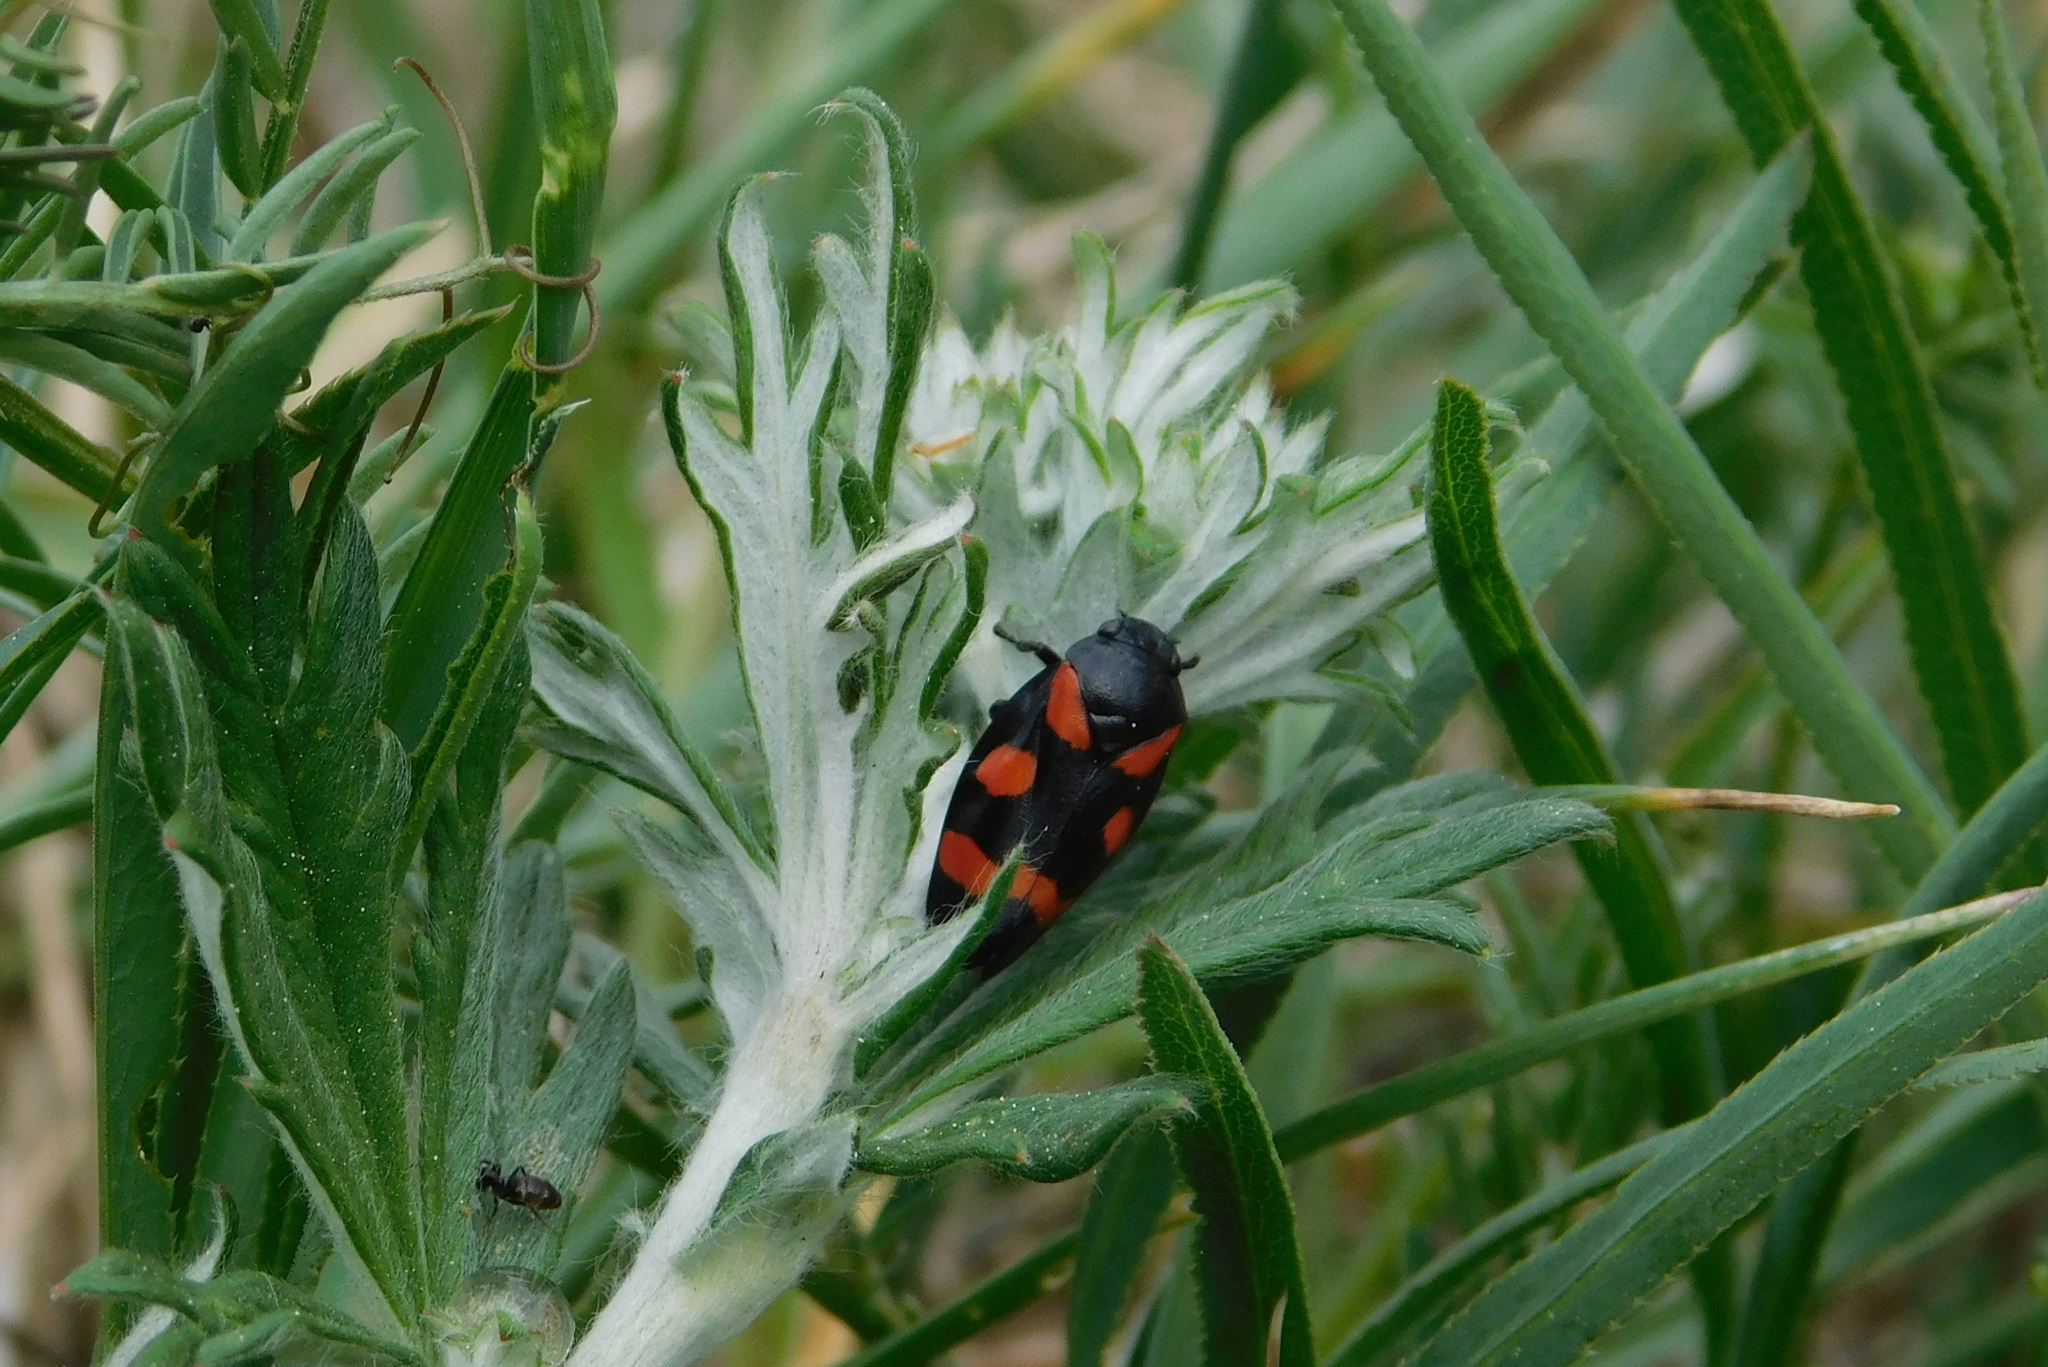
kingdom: Animalia
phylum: Arthropoda
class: Insecta
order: Hemiptera
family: Cercopidae
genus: Cercopis
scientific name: Cercopis sanguinolenta
